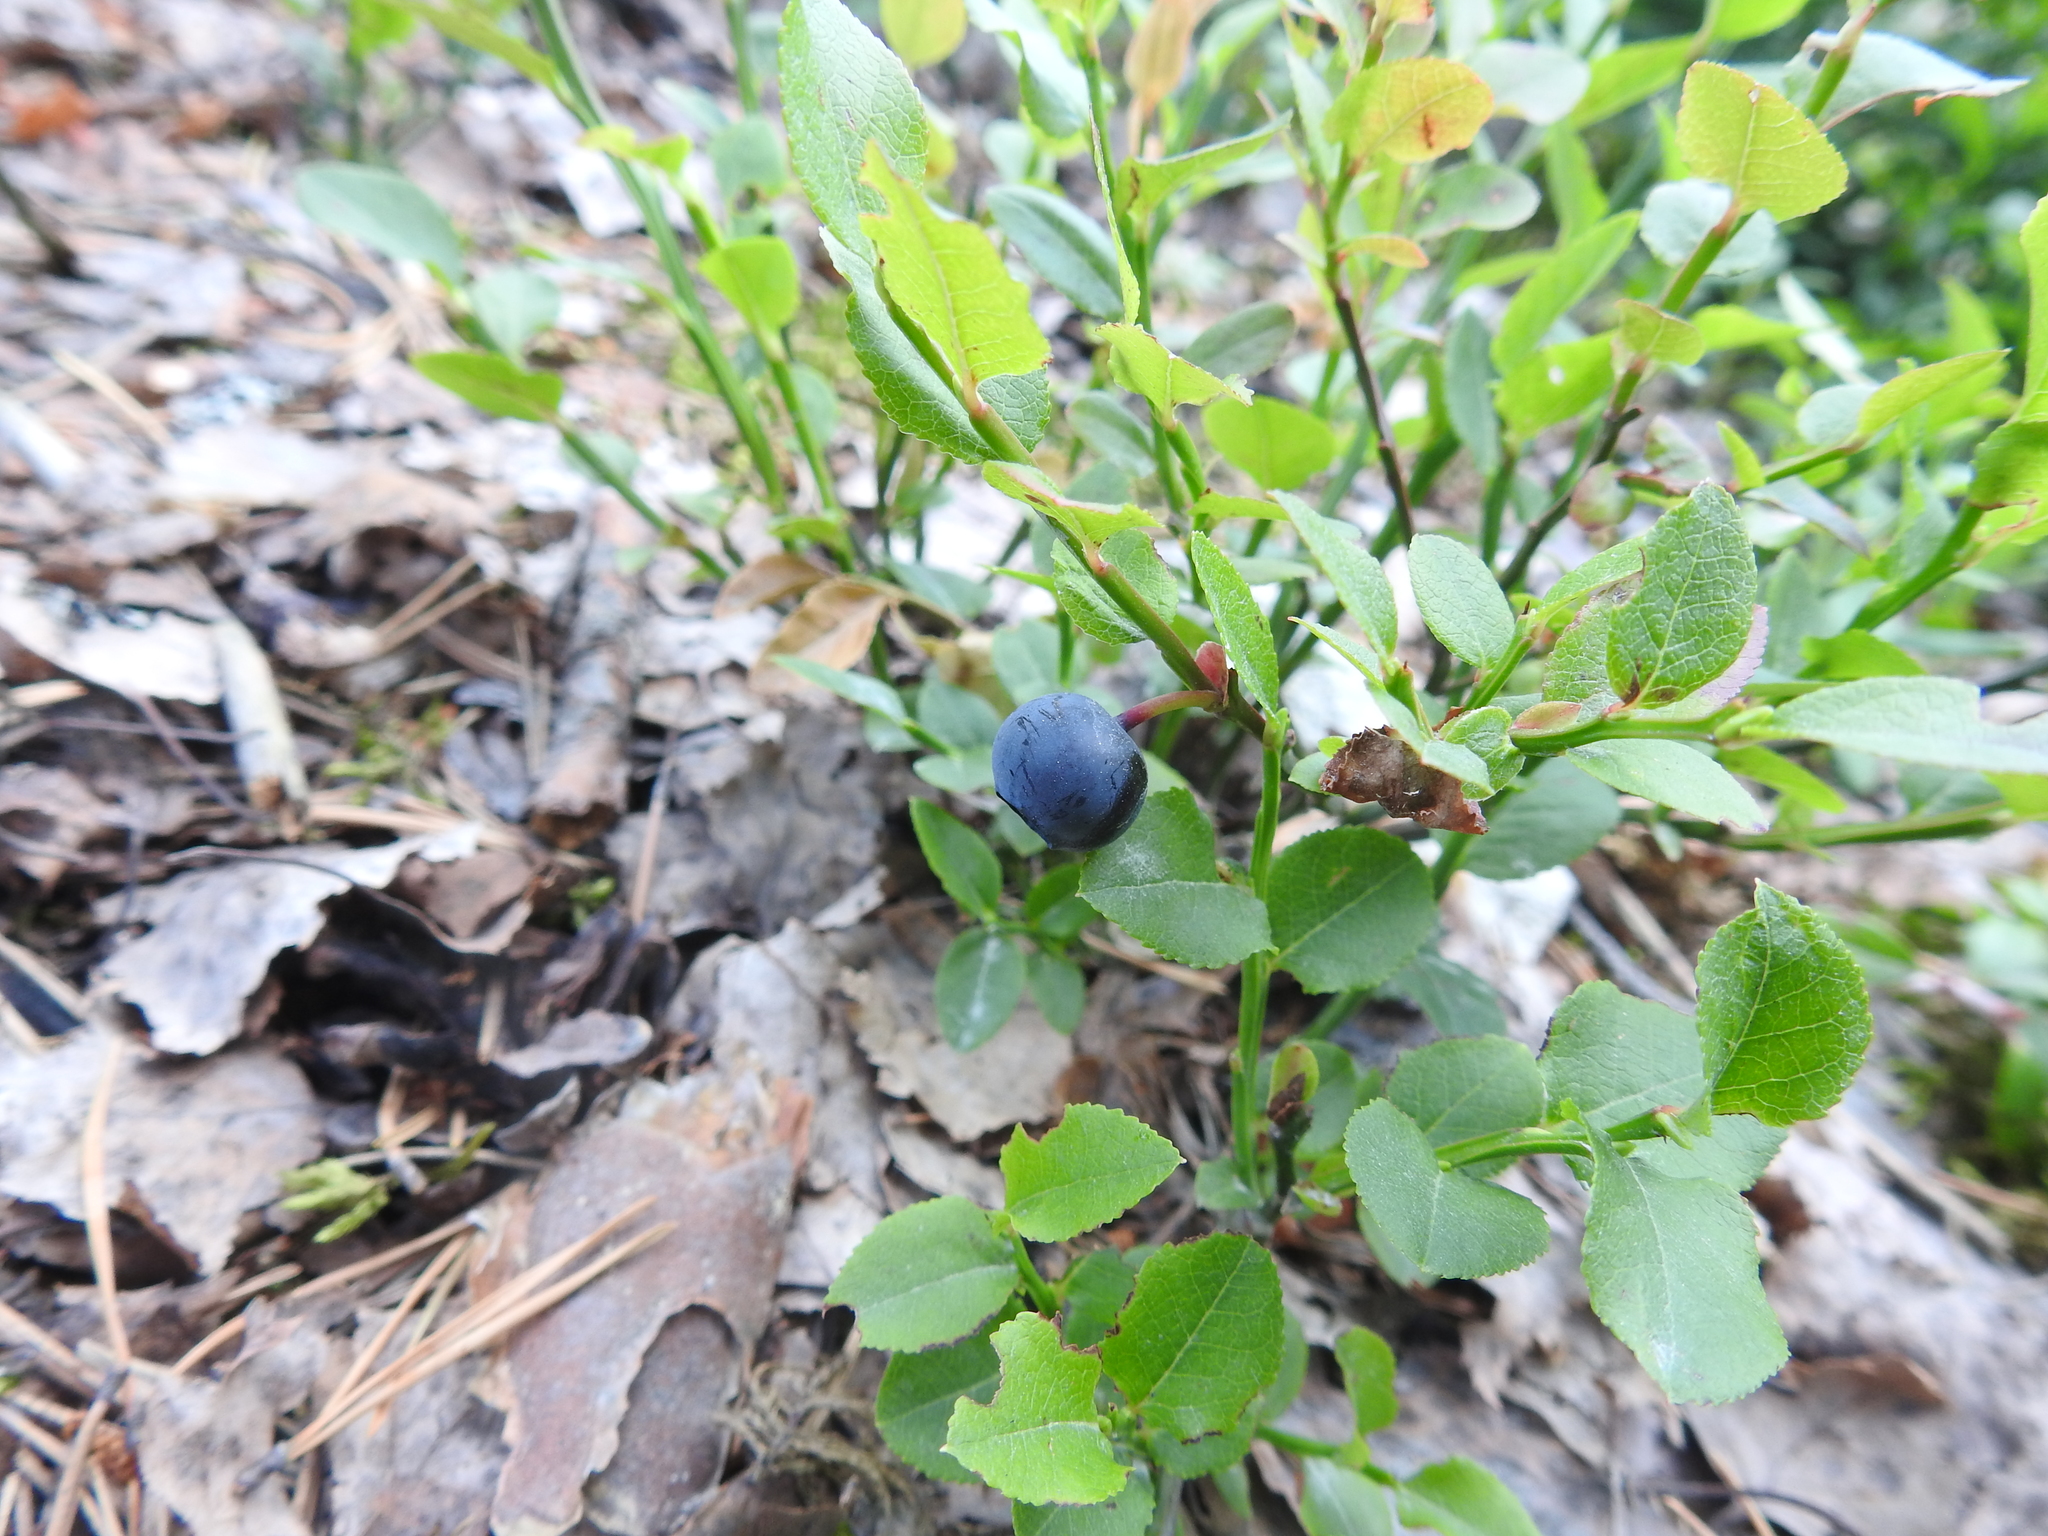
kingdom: Plantae
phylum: Tracheophyta
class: Magnoliopsida
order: Ericales
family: Ericaceae
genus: Vaccinium
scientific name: Vaccinium myrtillus
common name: Bilberry
